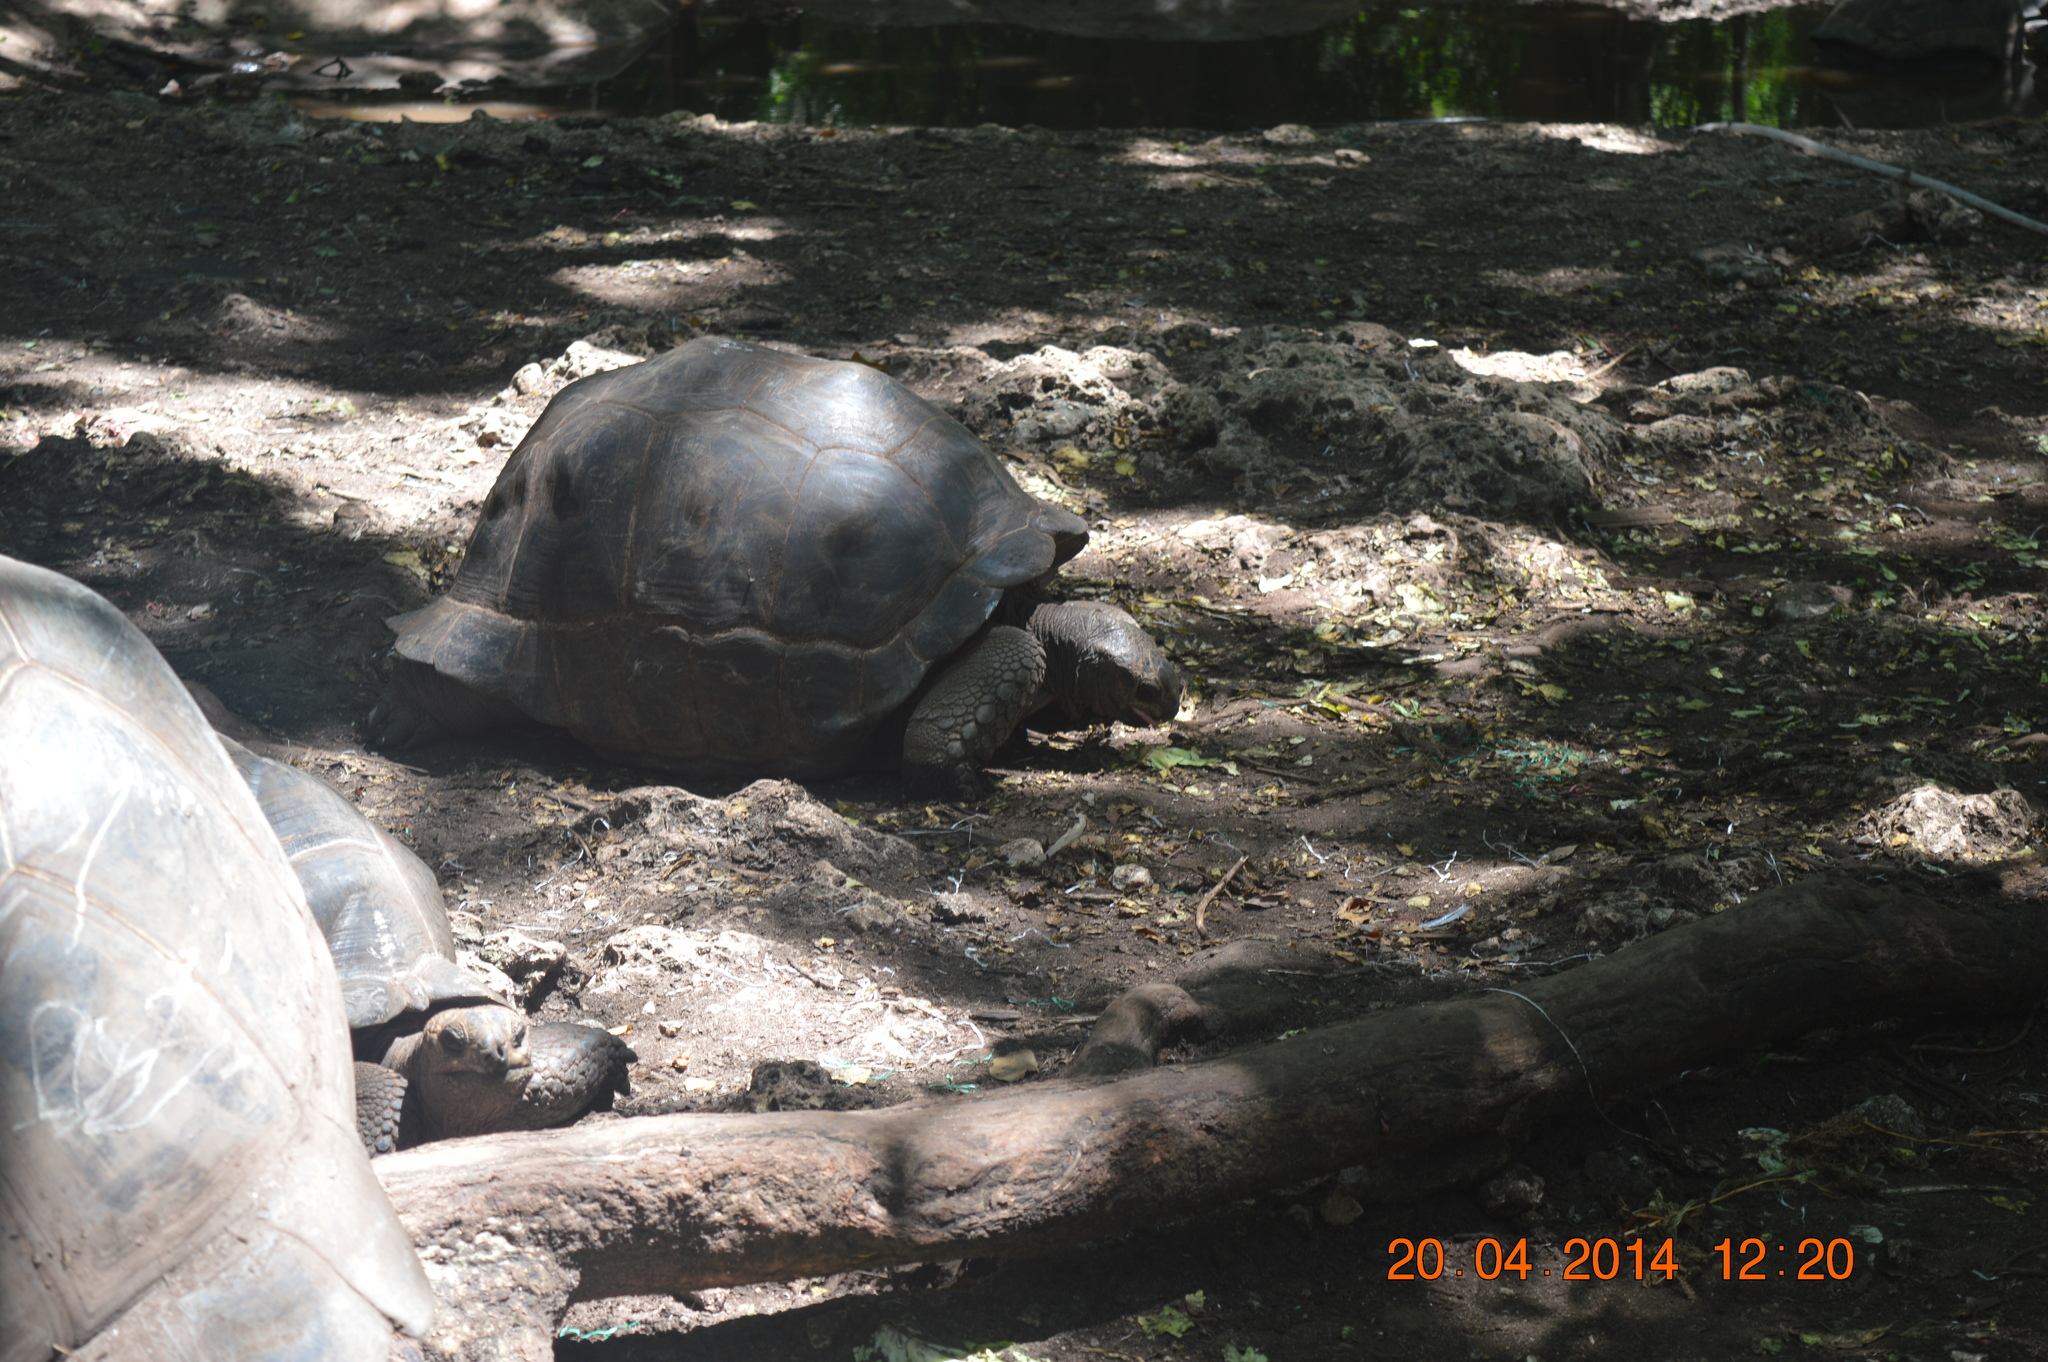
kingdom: Animalia
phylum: Chordata
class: Testudines
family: Testudinidae
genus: Aldabrachelys
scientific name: Aldabrachelys gigantea
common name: Aldabra giant tortoise
